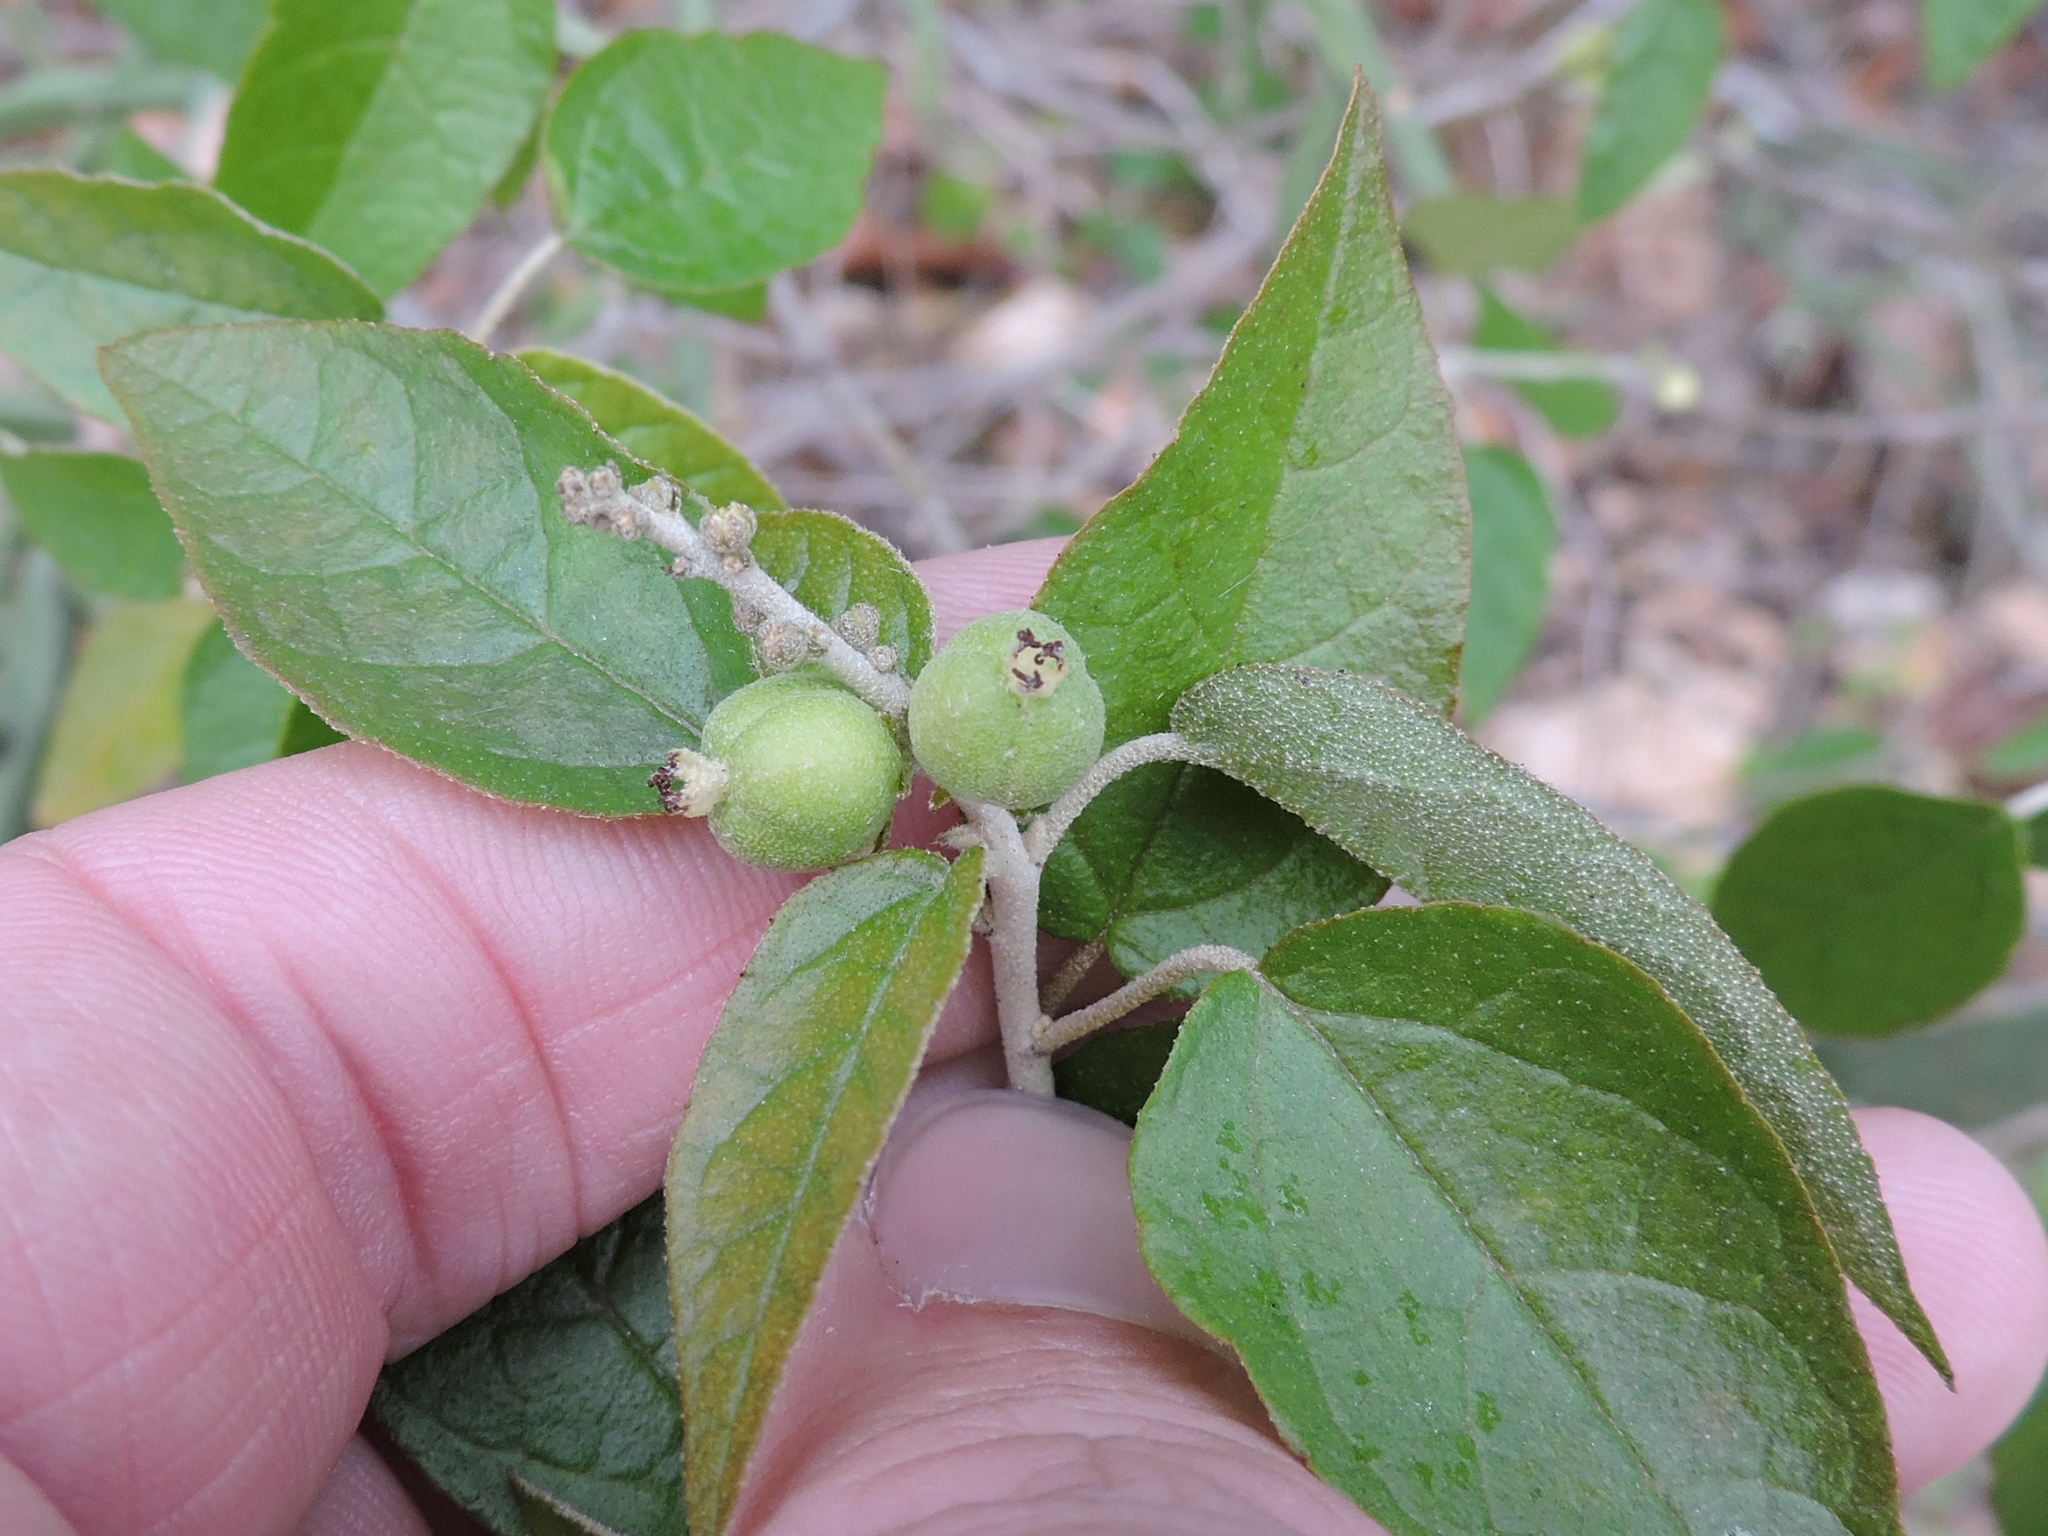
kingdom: Plantae
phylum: Tracheophyta
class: Magnoliopsida
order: Malpighiales
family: Euphorbiaceae
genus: Croton
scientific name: Croton fruticulosus
